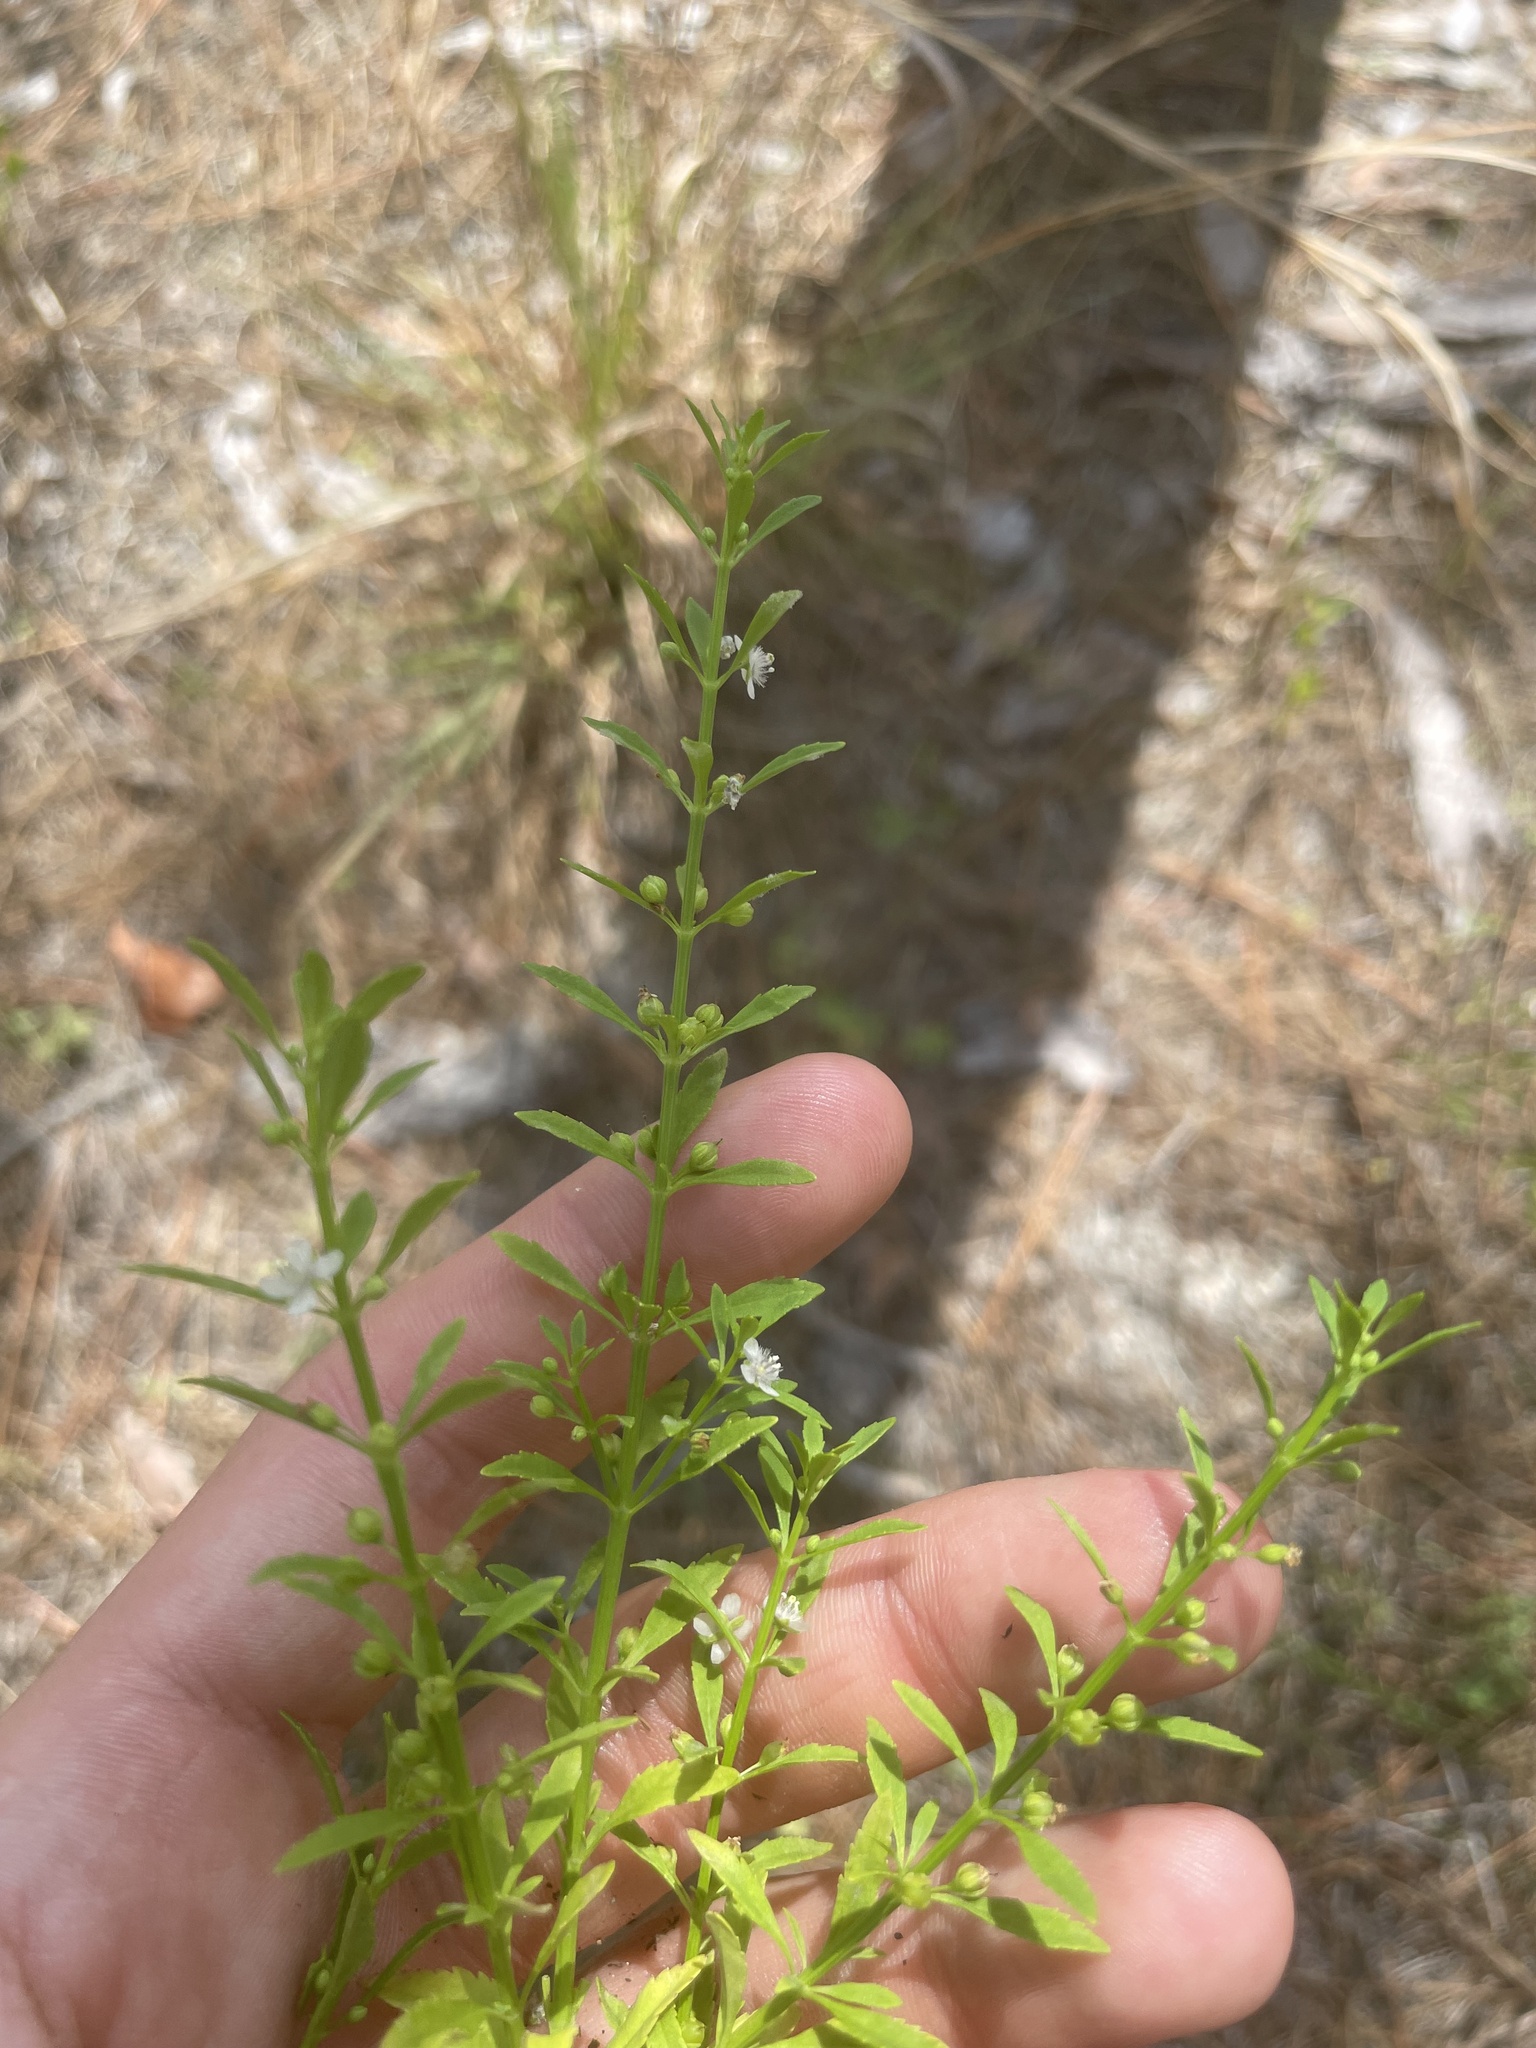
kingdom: Plantae
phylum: Tracheophyta
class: Magnoliopsida
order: Lamiales
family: Plantaginaceae
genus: Scoparia
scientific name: Scoparia dulcis
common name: Scoparia-weed
